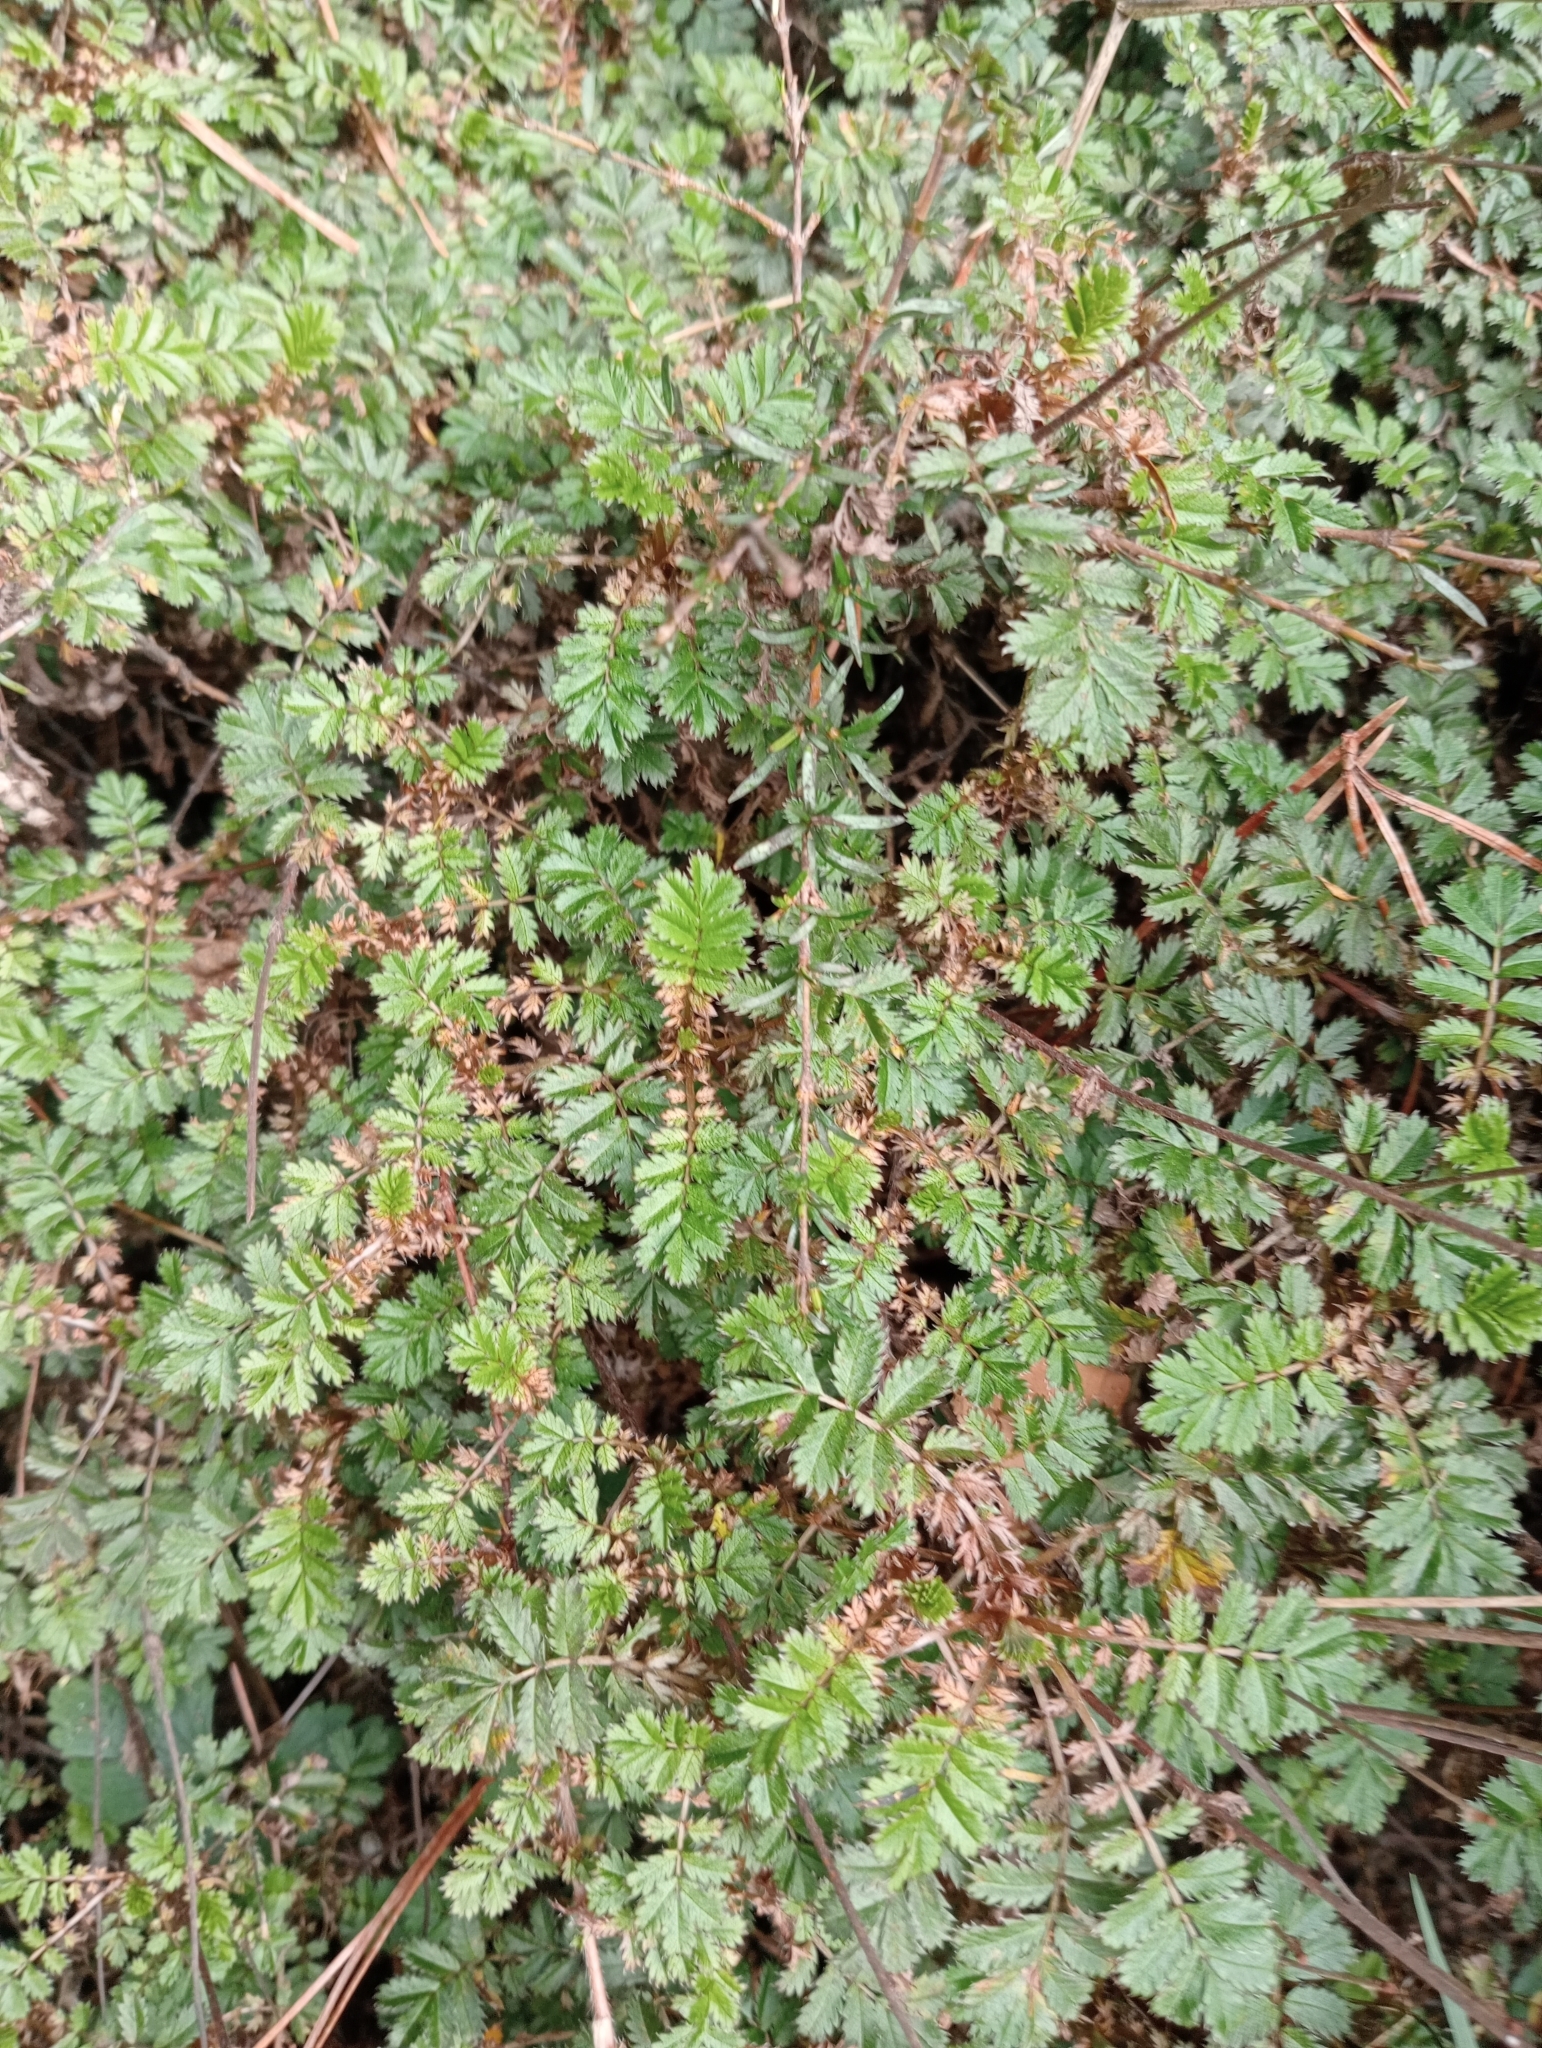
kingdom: Plantae
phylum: Tracheophyta
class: Magnoliopsida
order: Rosales
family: Rosaceae
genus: Acaena
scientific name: Acaena anserinifolia
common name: Bronze pirri-pirri-bur
